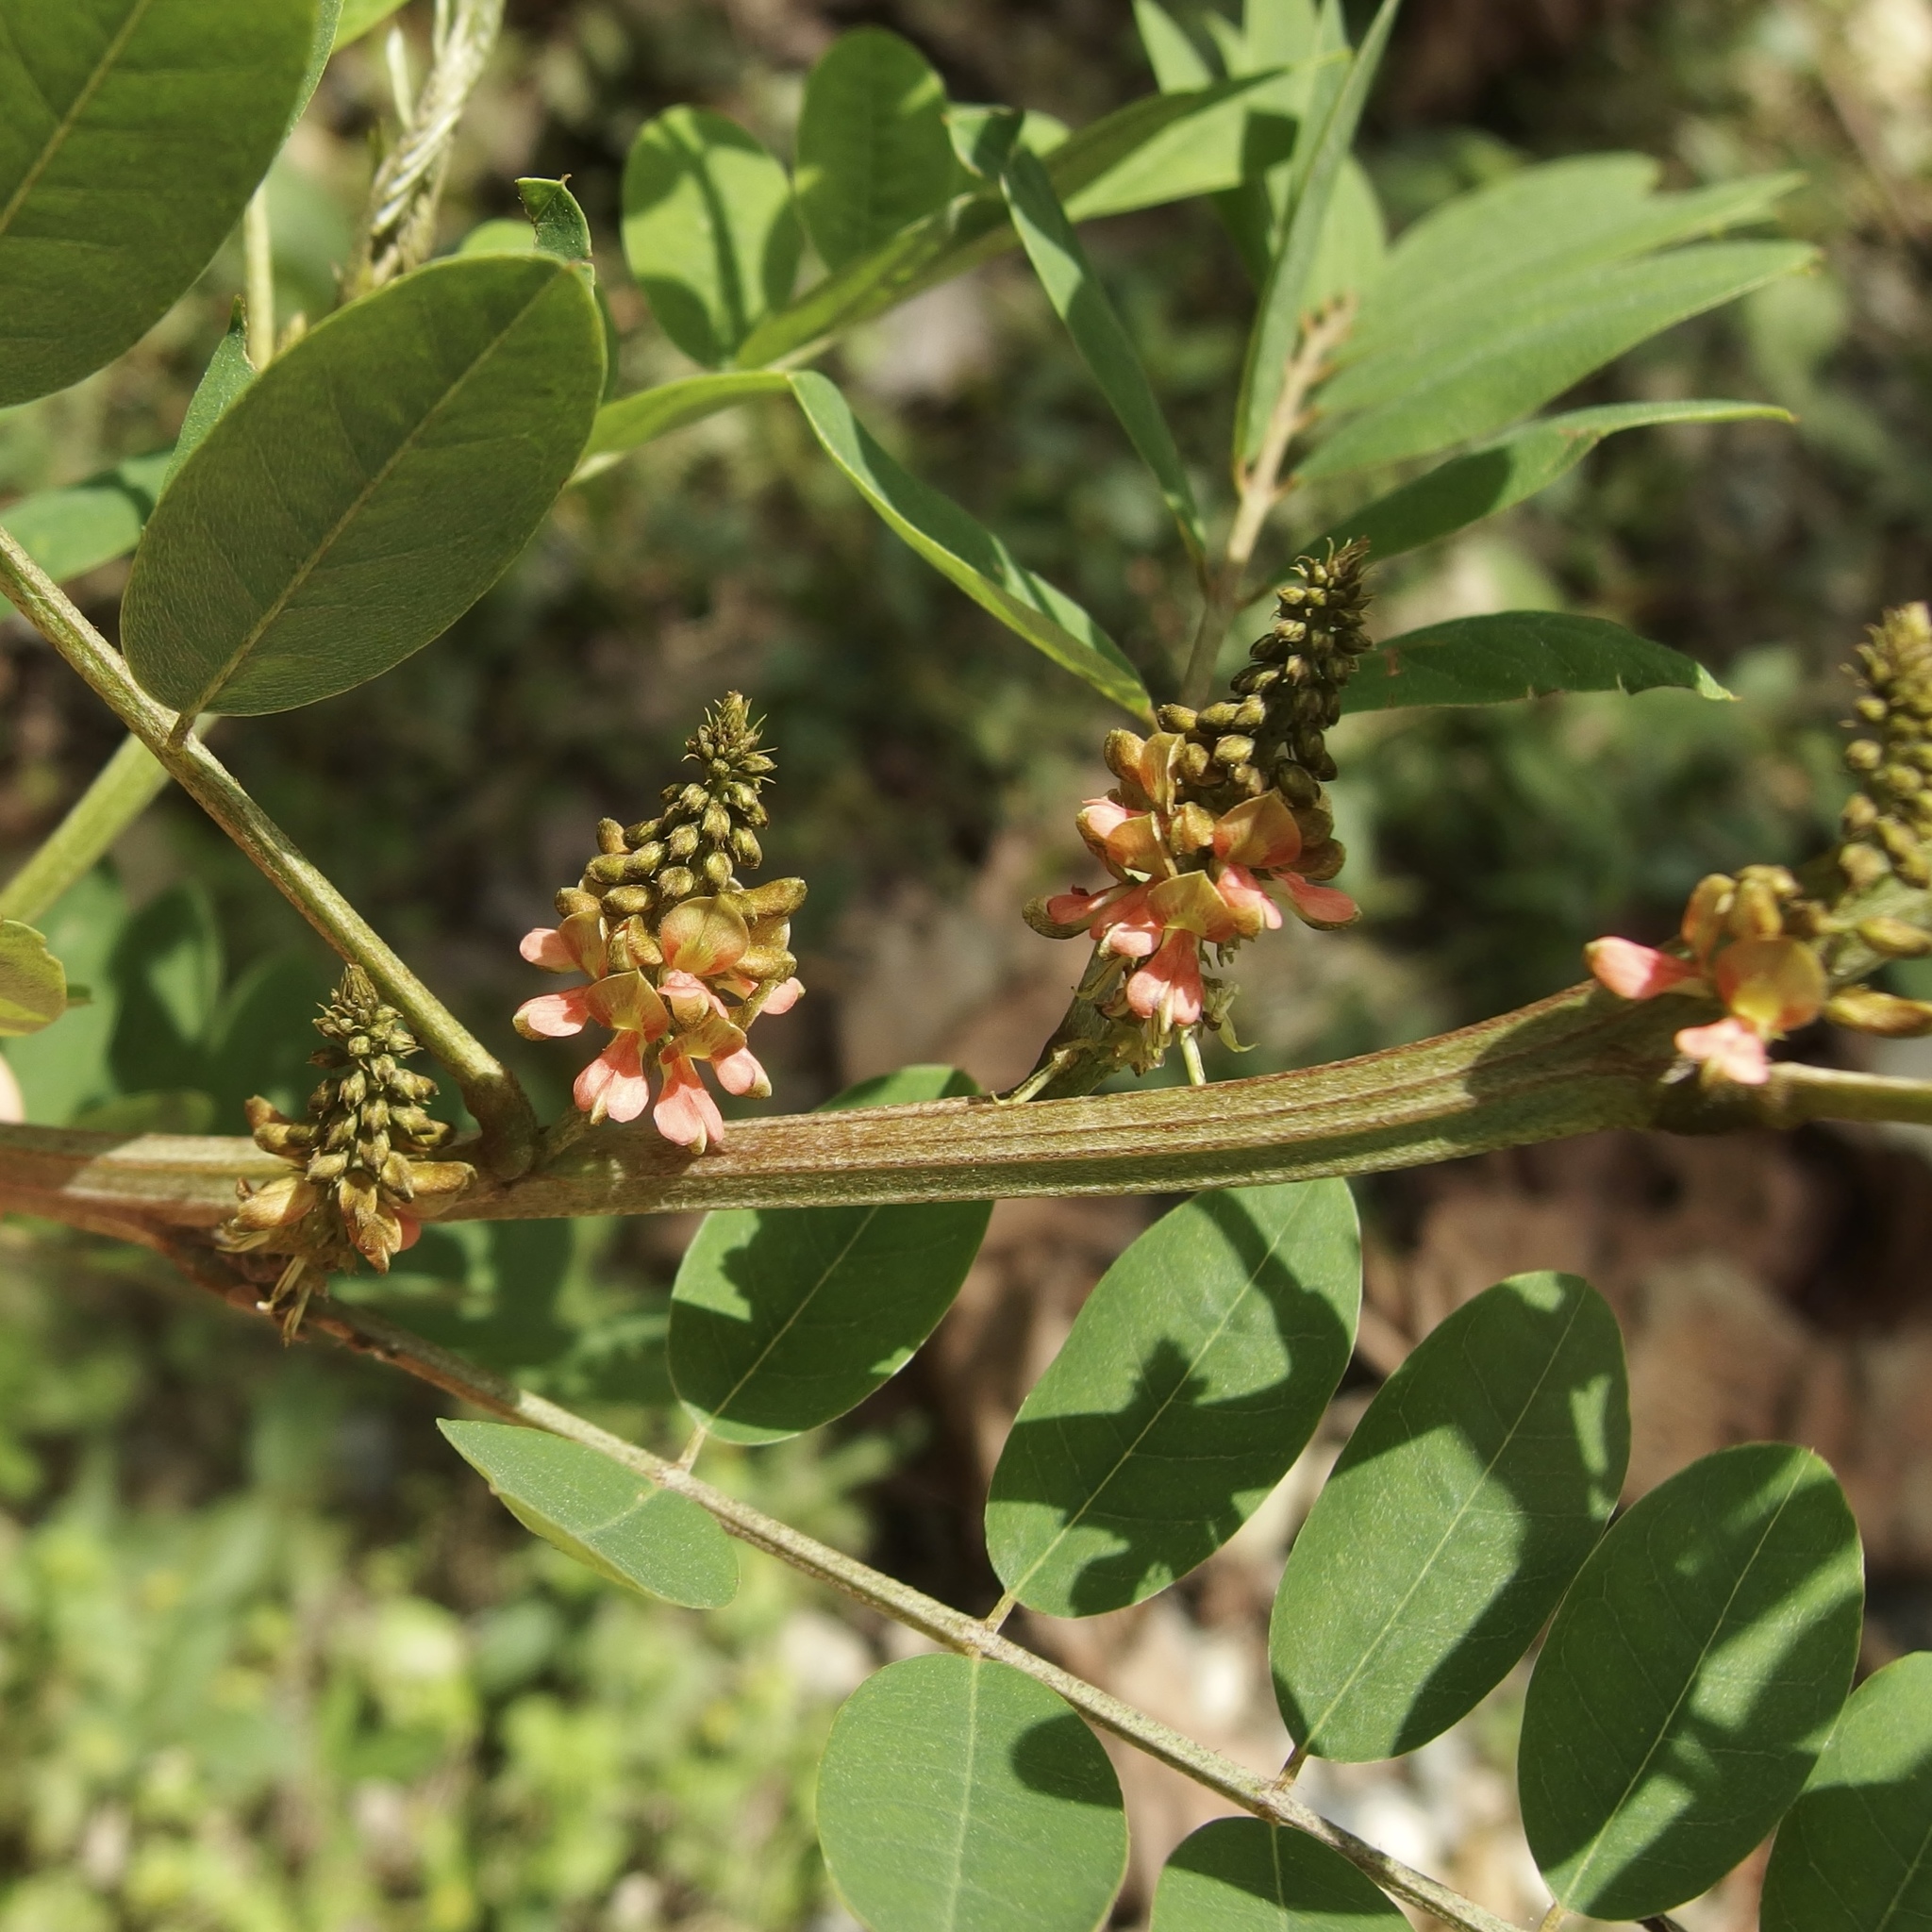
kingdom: Plantae
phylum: Tracheophyta
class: Magnoliopsida
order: Fabales
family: Fabaceae
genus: Indigofera
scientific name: Indigofera suffruticosa
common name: Anil de pasto
